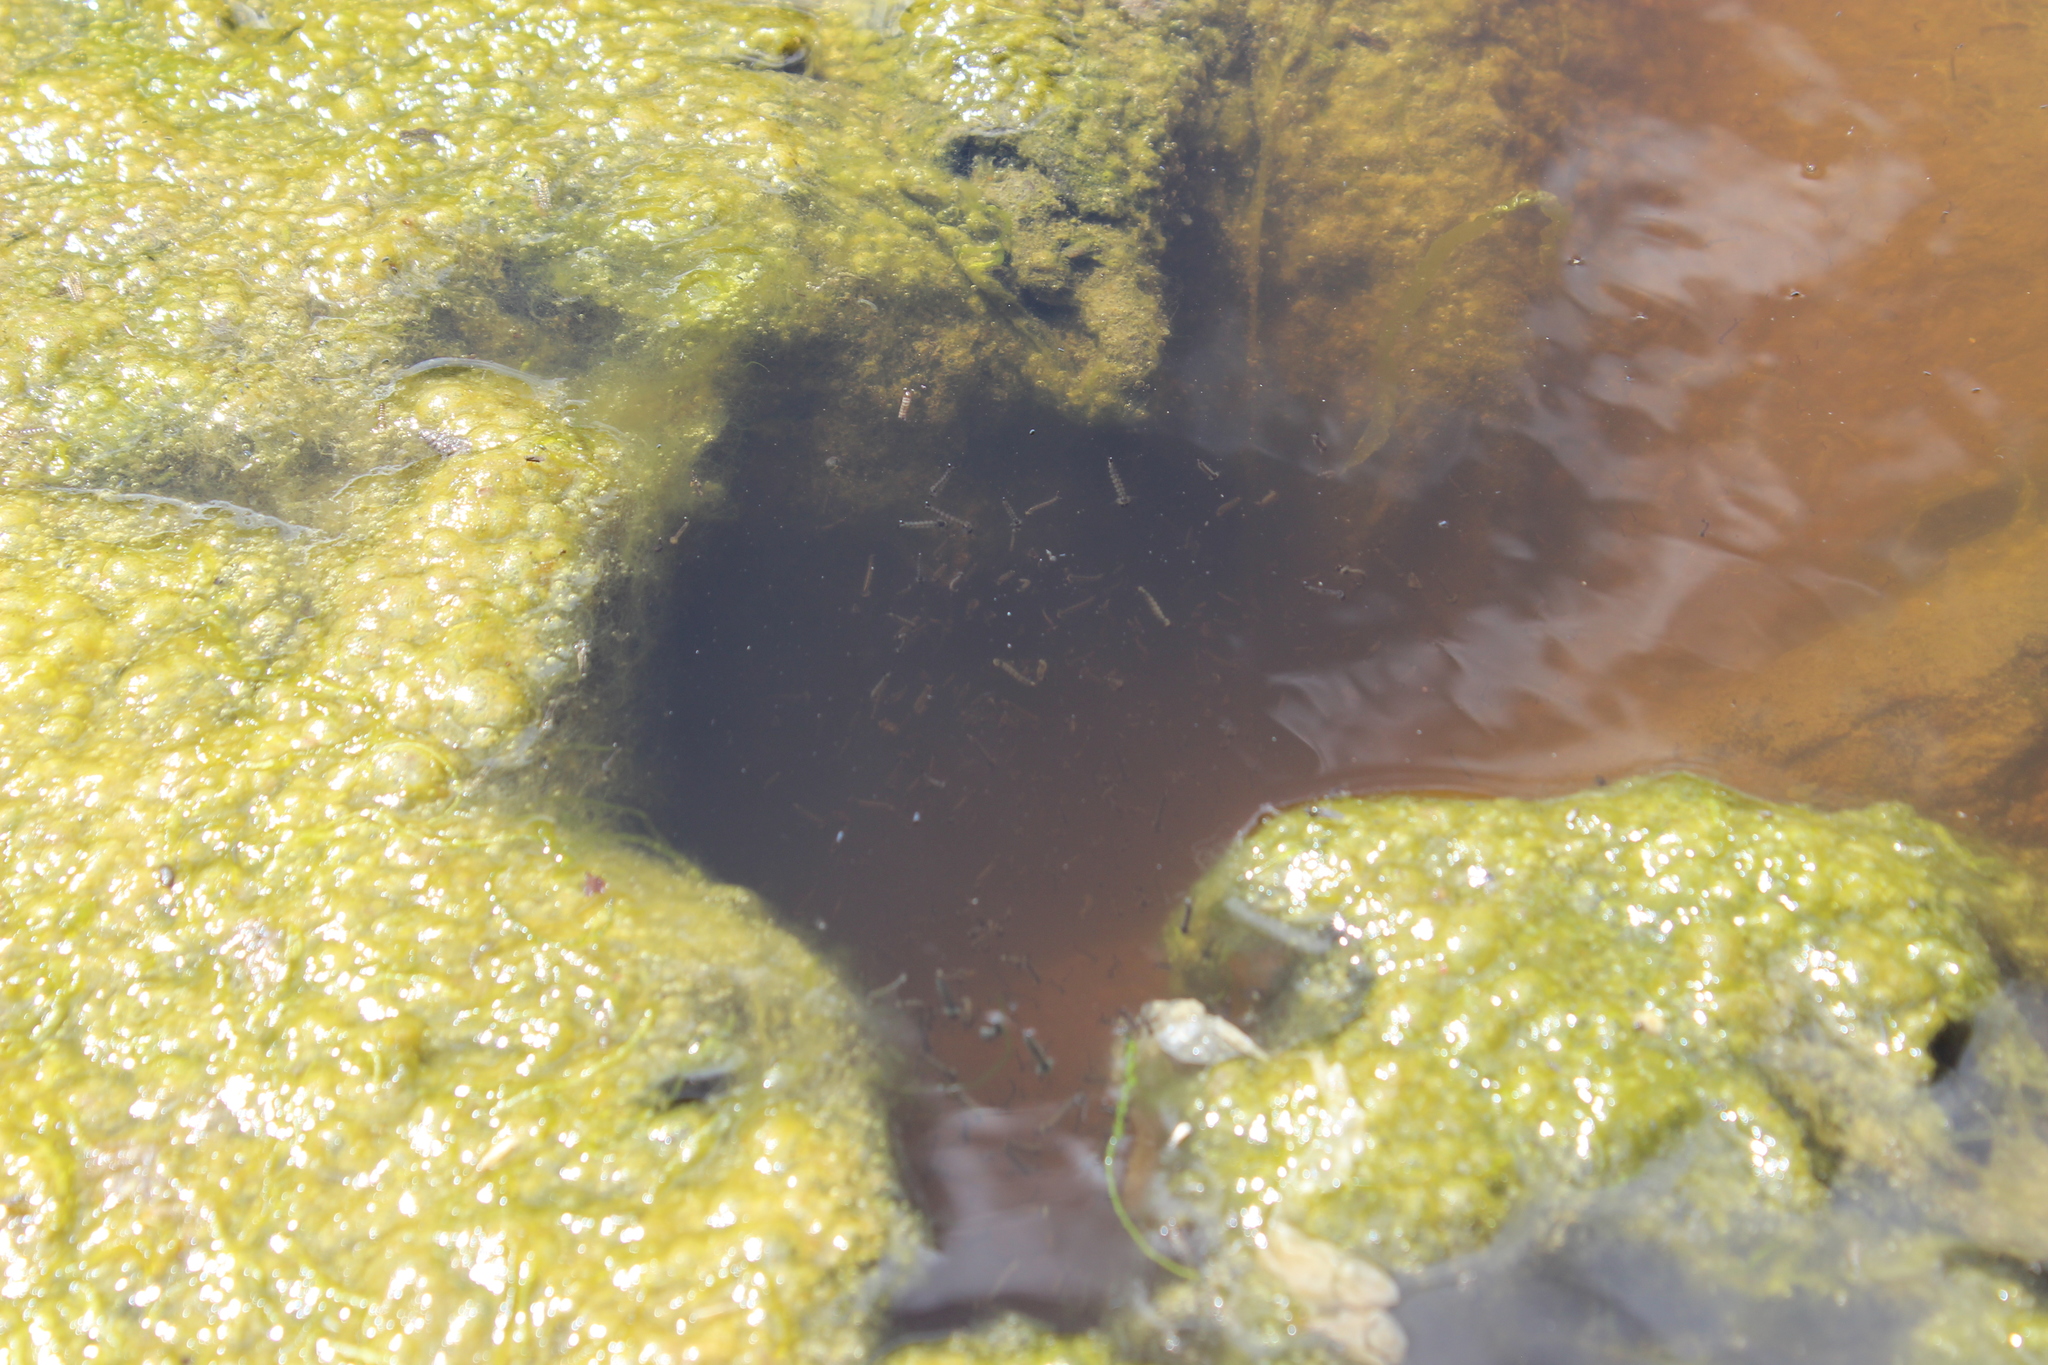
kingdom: Animalia
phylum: Arthropoda
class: Insecta
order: Diptera
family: Culicidae
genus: Opifex
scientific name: Opifex fuscus
